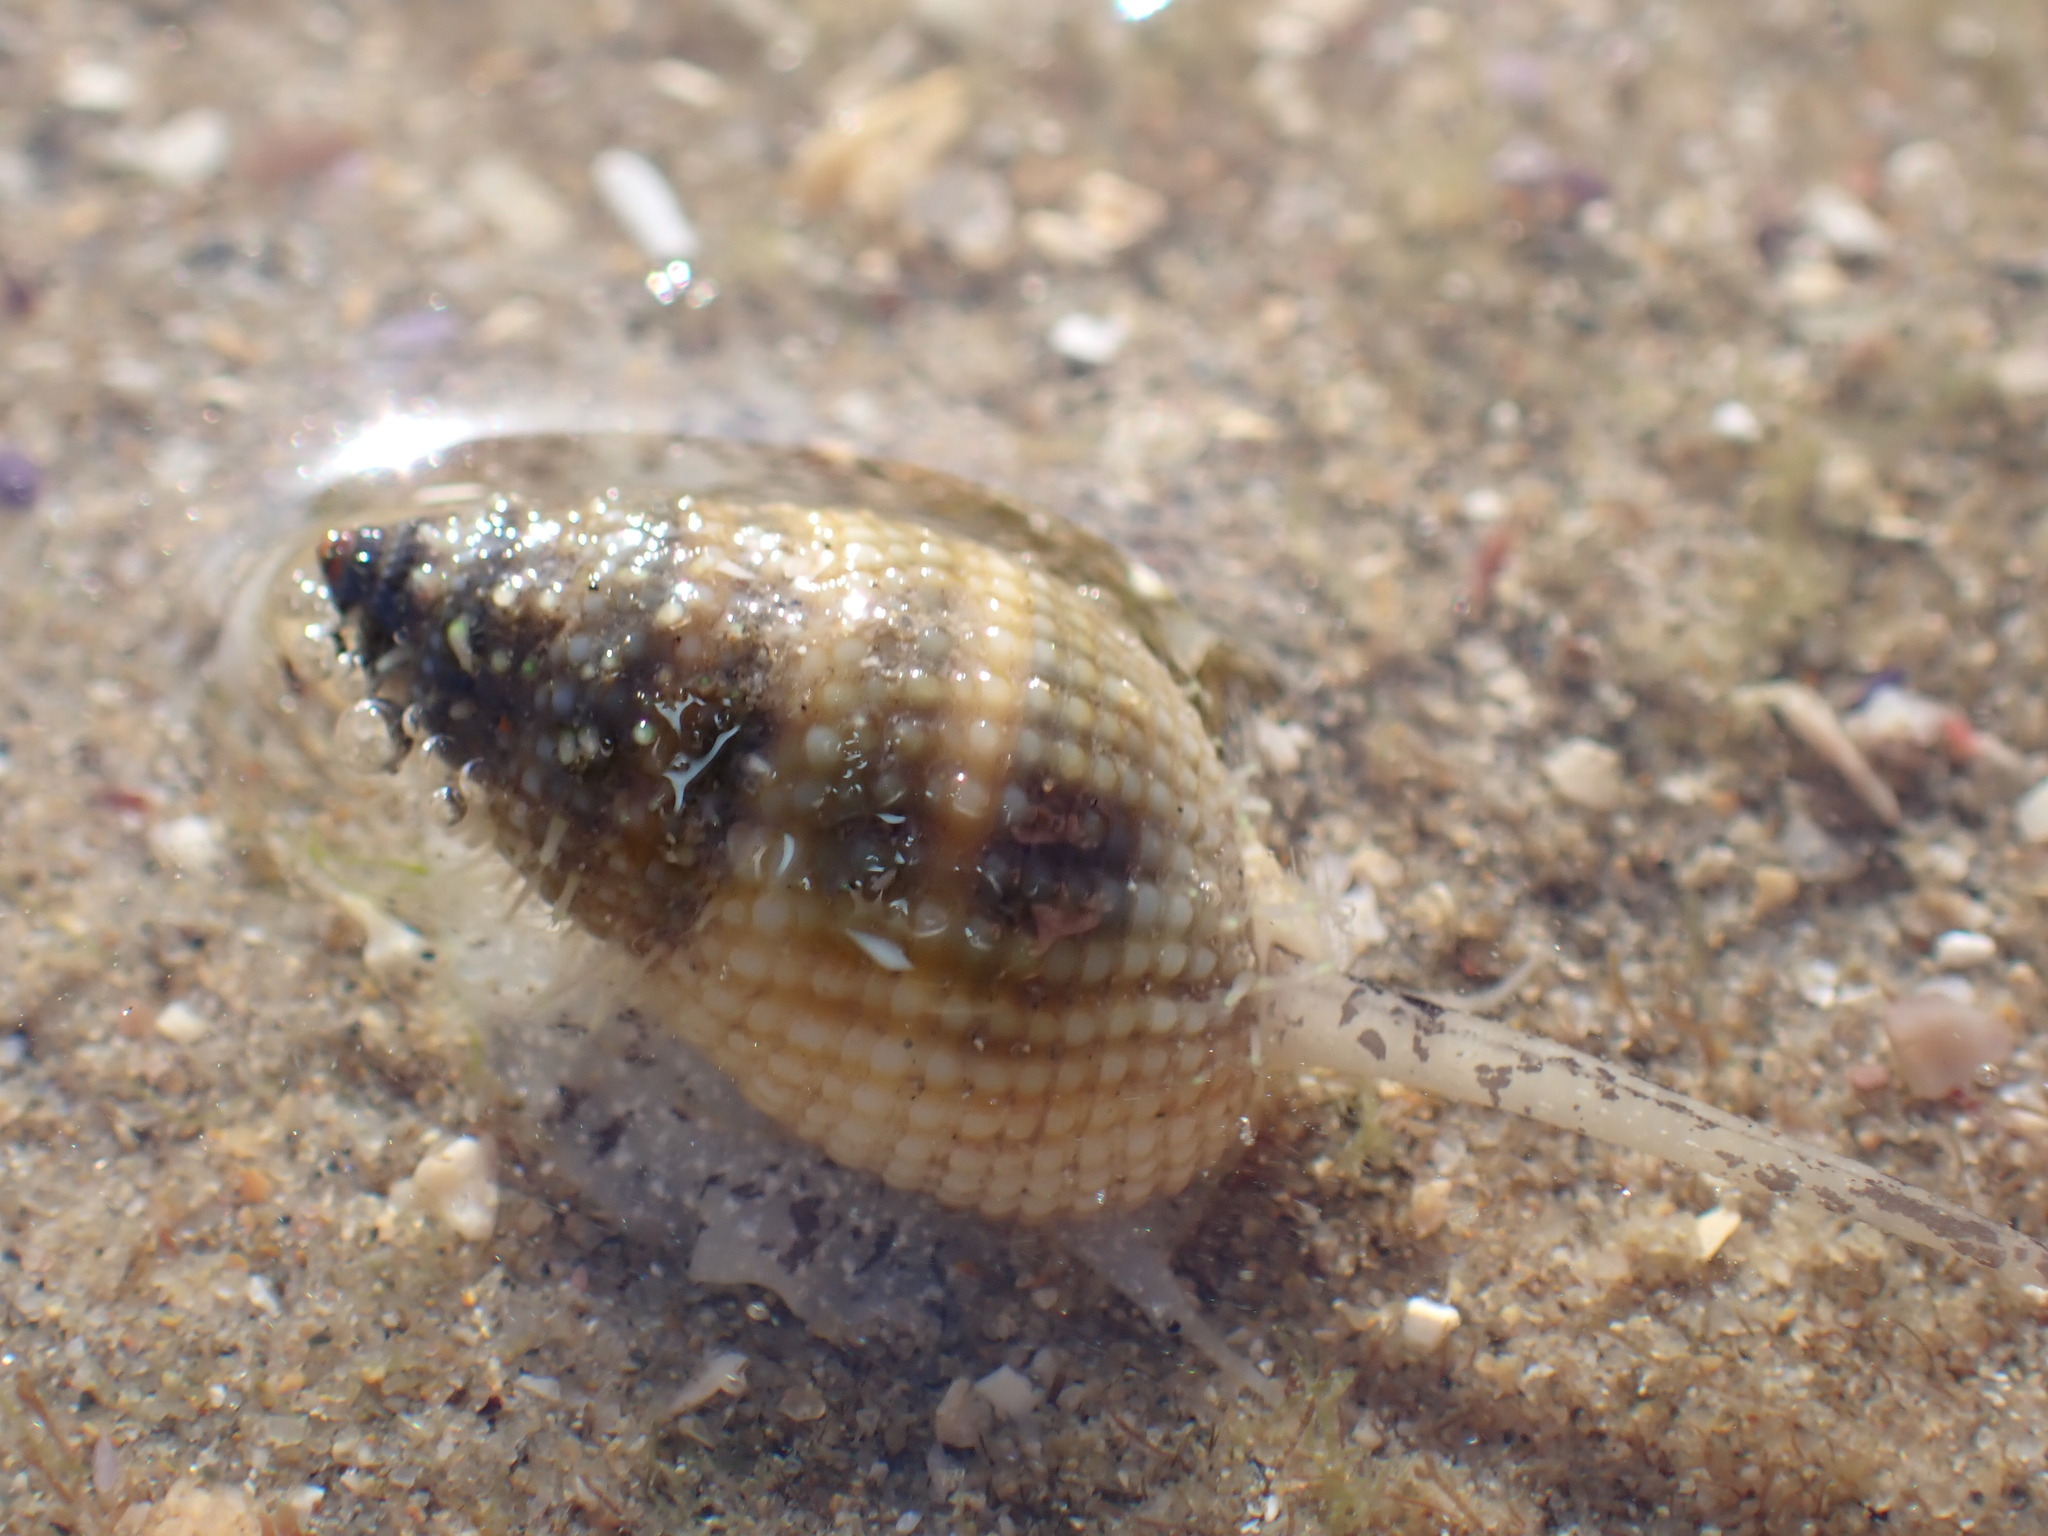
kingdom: Animalia
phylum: Mollusca
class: Gastropoda
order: Neogastropoda
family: Nassariidae
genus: Nassarius
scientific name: Nassarius albescens
